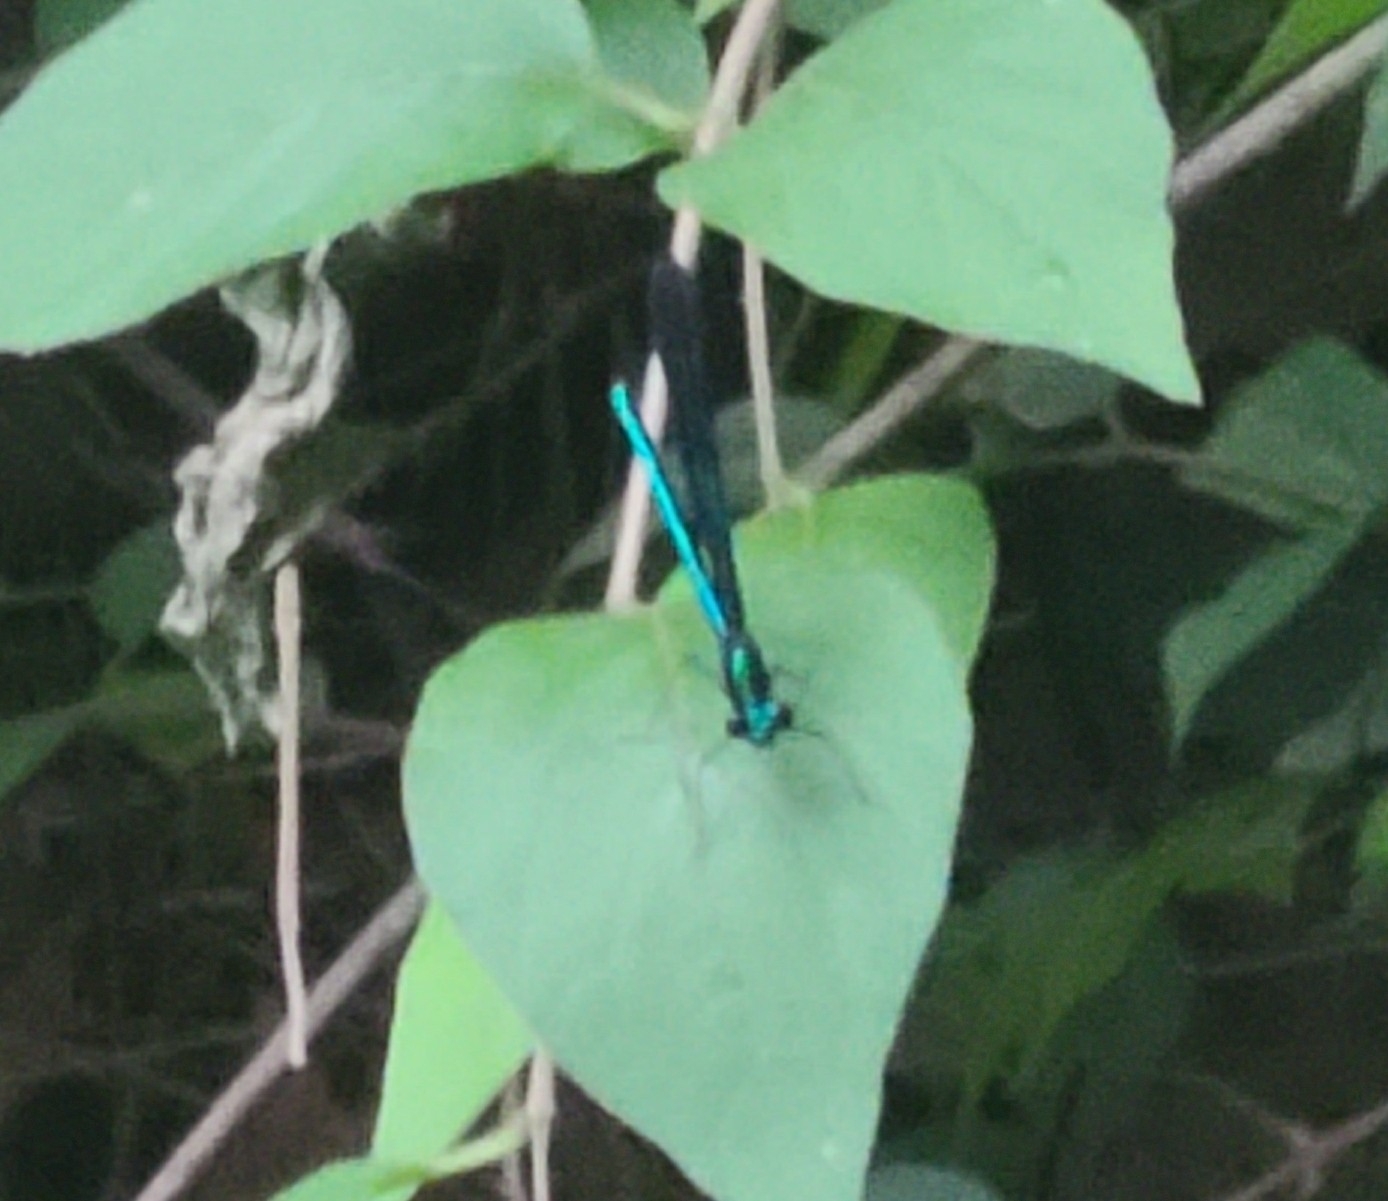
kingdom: Animalia
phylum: Arthropoda
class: Insecta
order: Odonata
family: Calopterygidae
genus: Calopteryx
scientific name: Calopteryx maculata
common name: Ebony jewelwing
